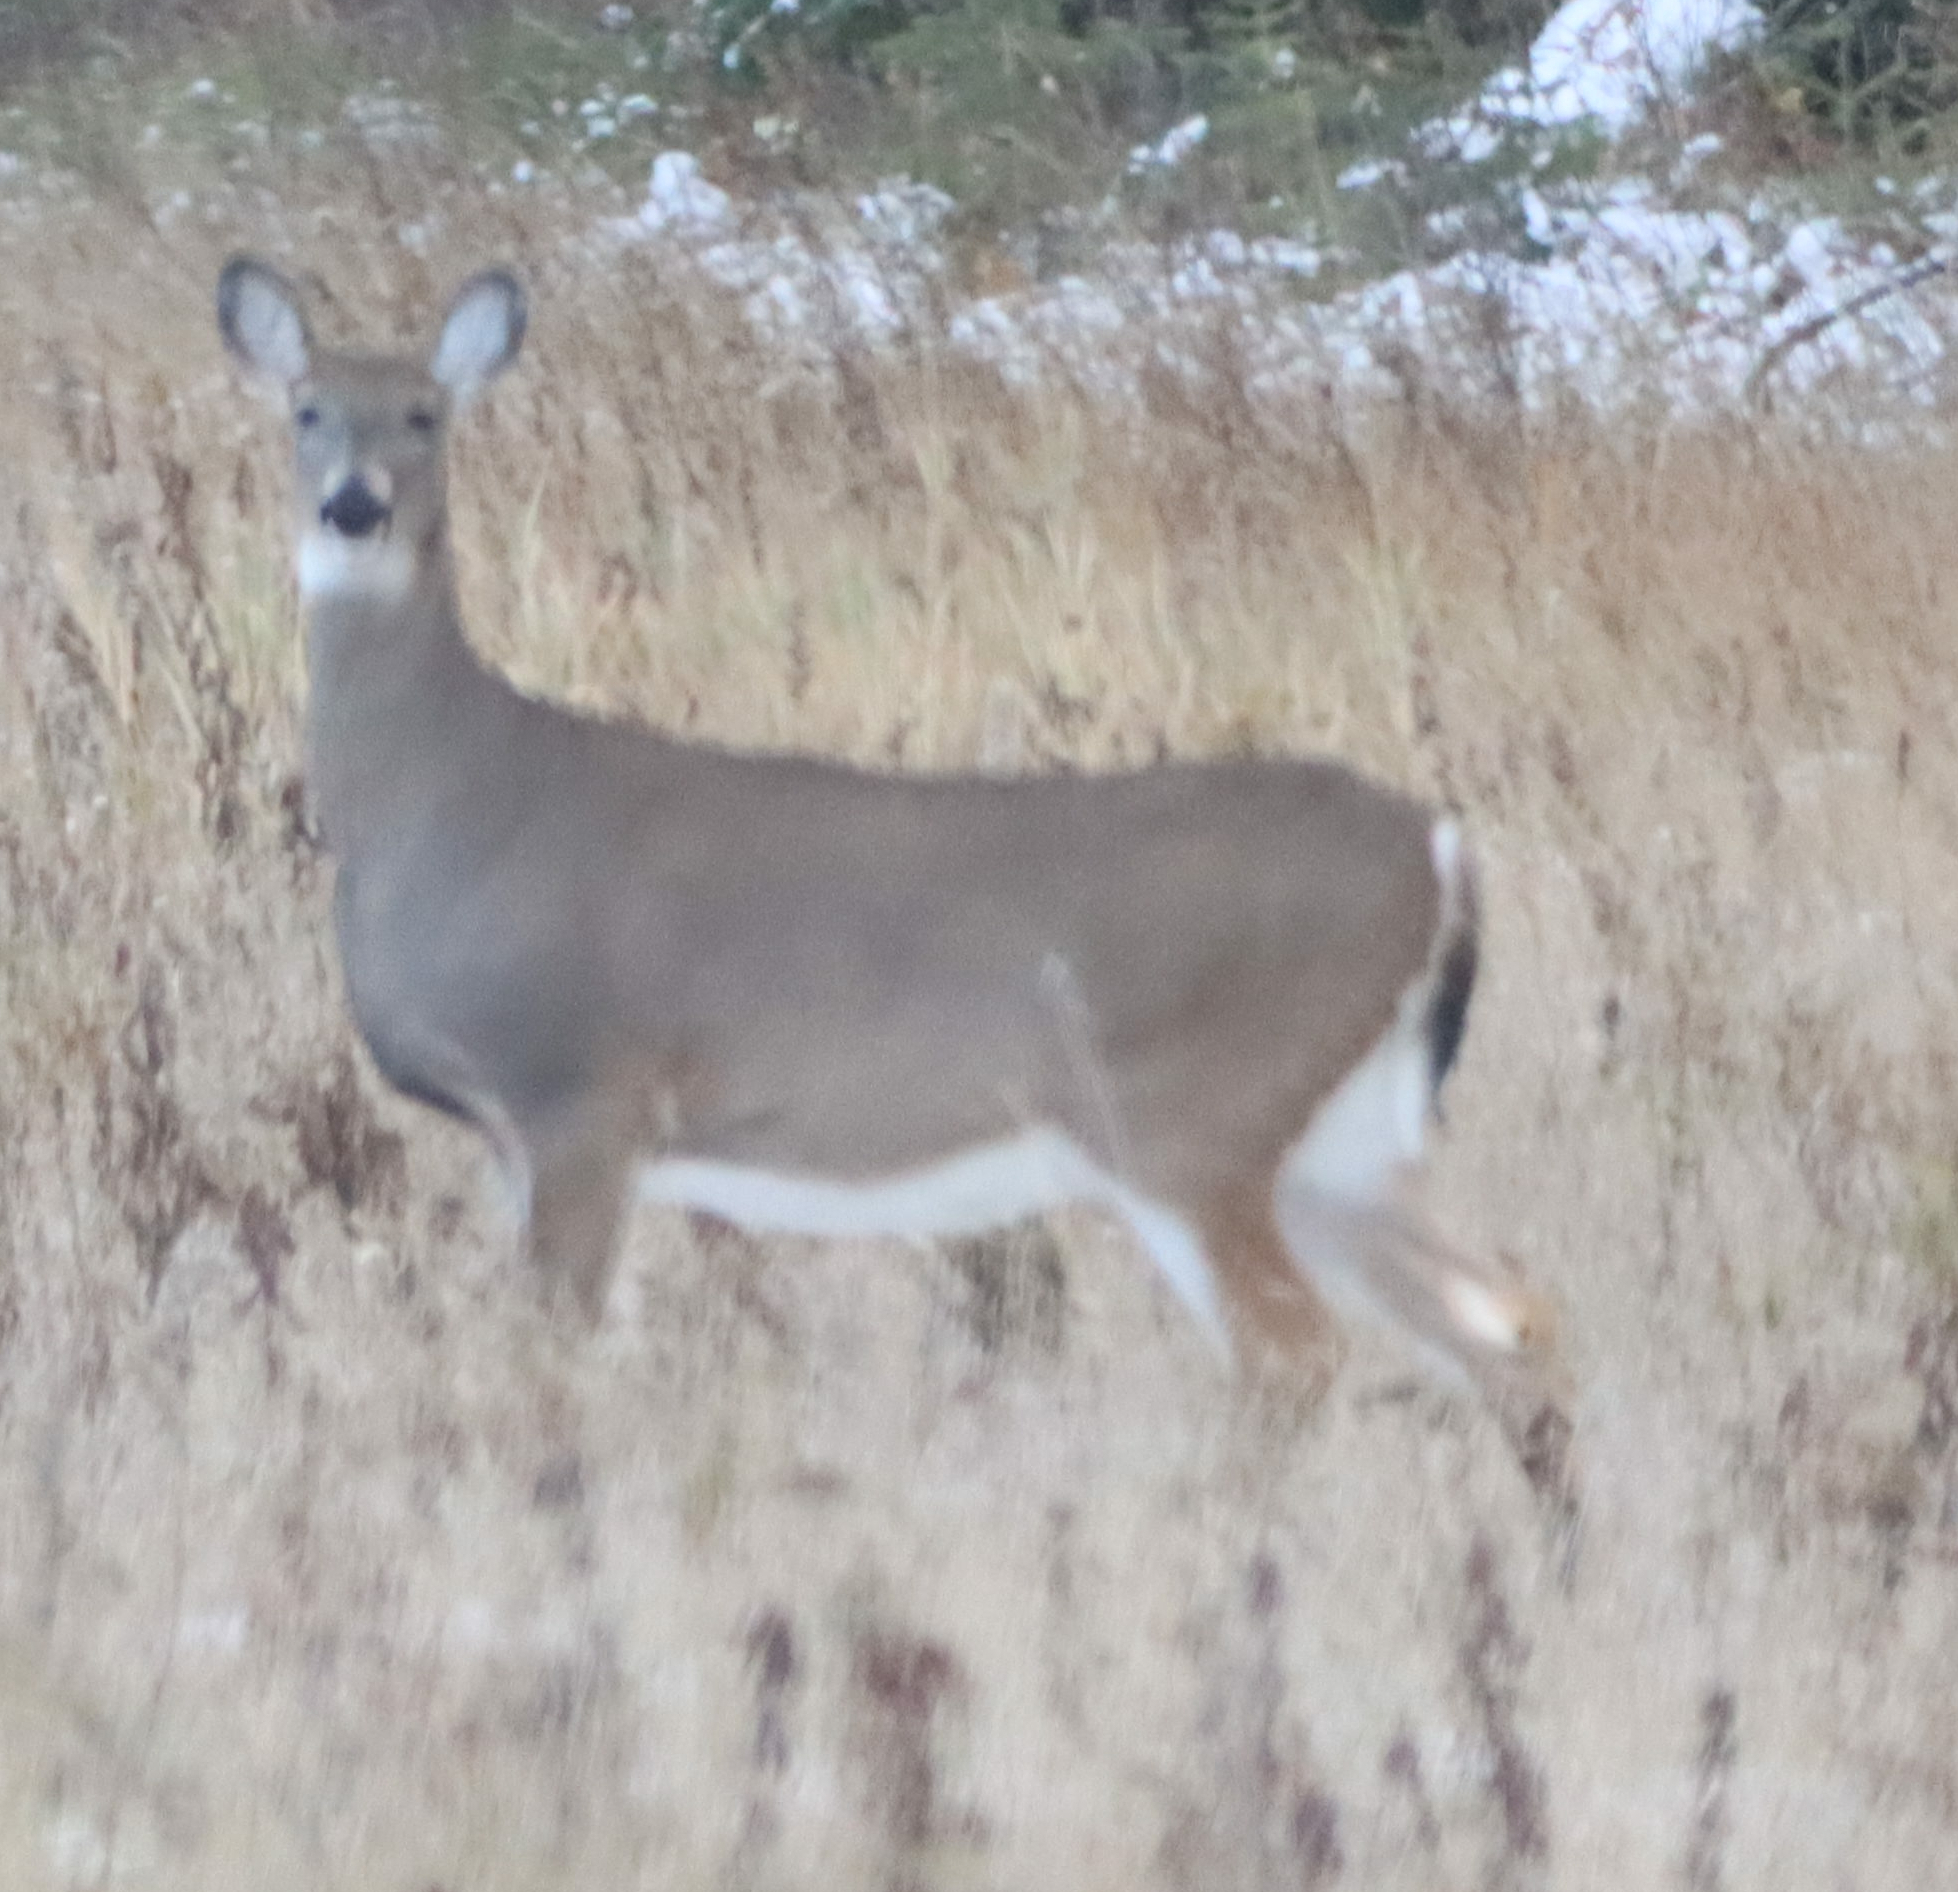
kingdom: Animalia
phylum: Chordata
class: Mammalia
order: Artiodactyla
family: Cervidae
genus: Odocoileus
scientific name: Odocoileus virginianus
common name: White-tailed deer
